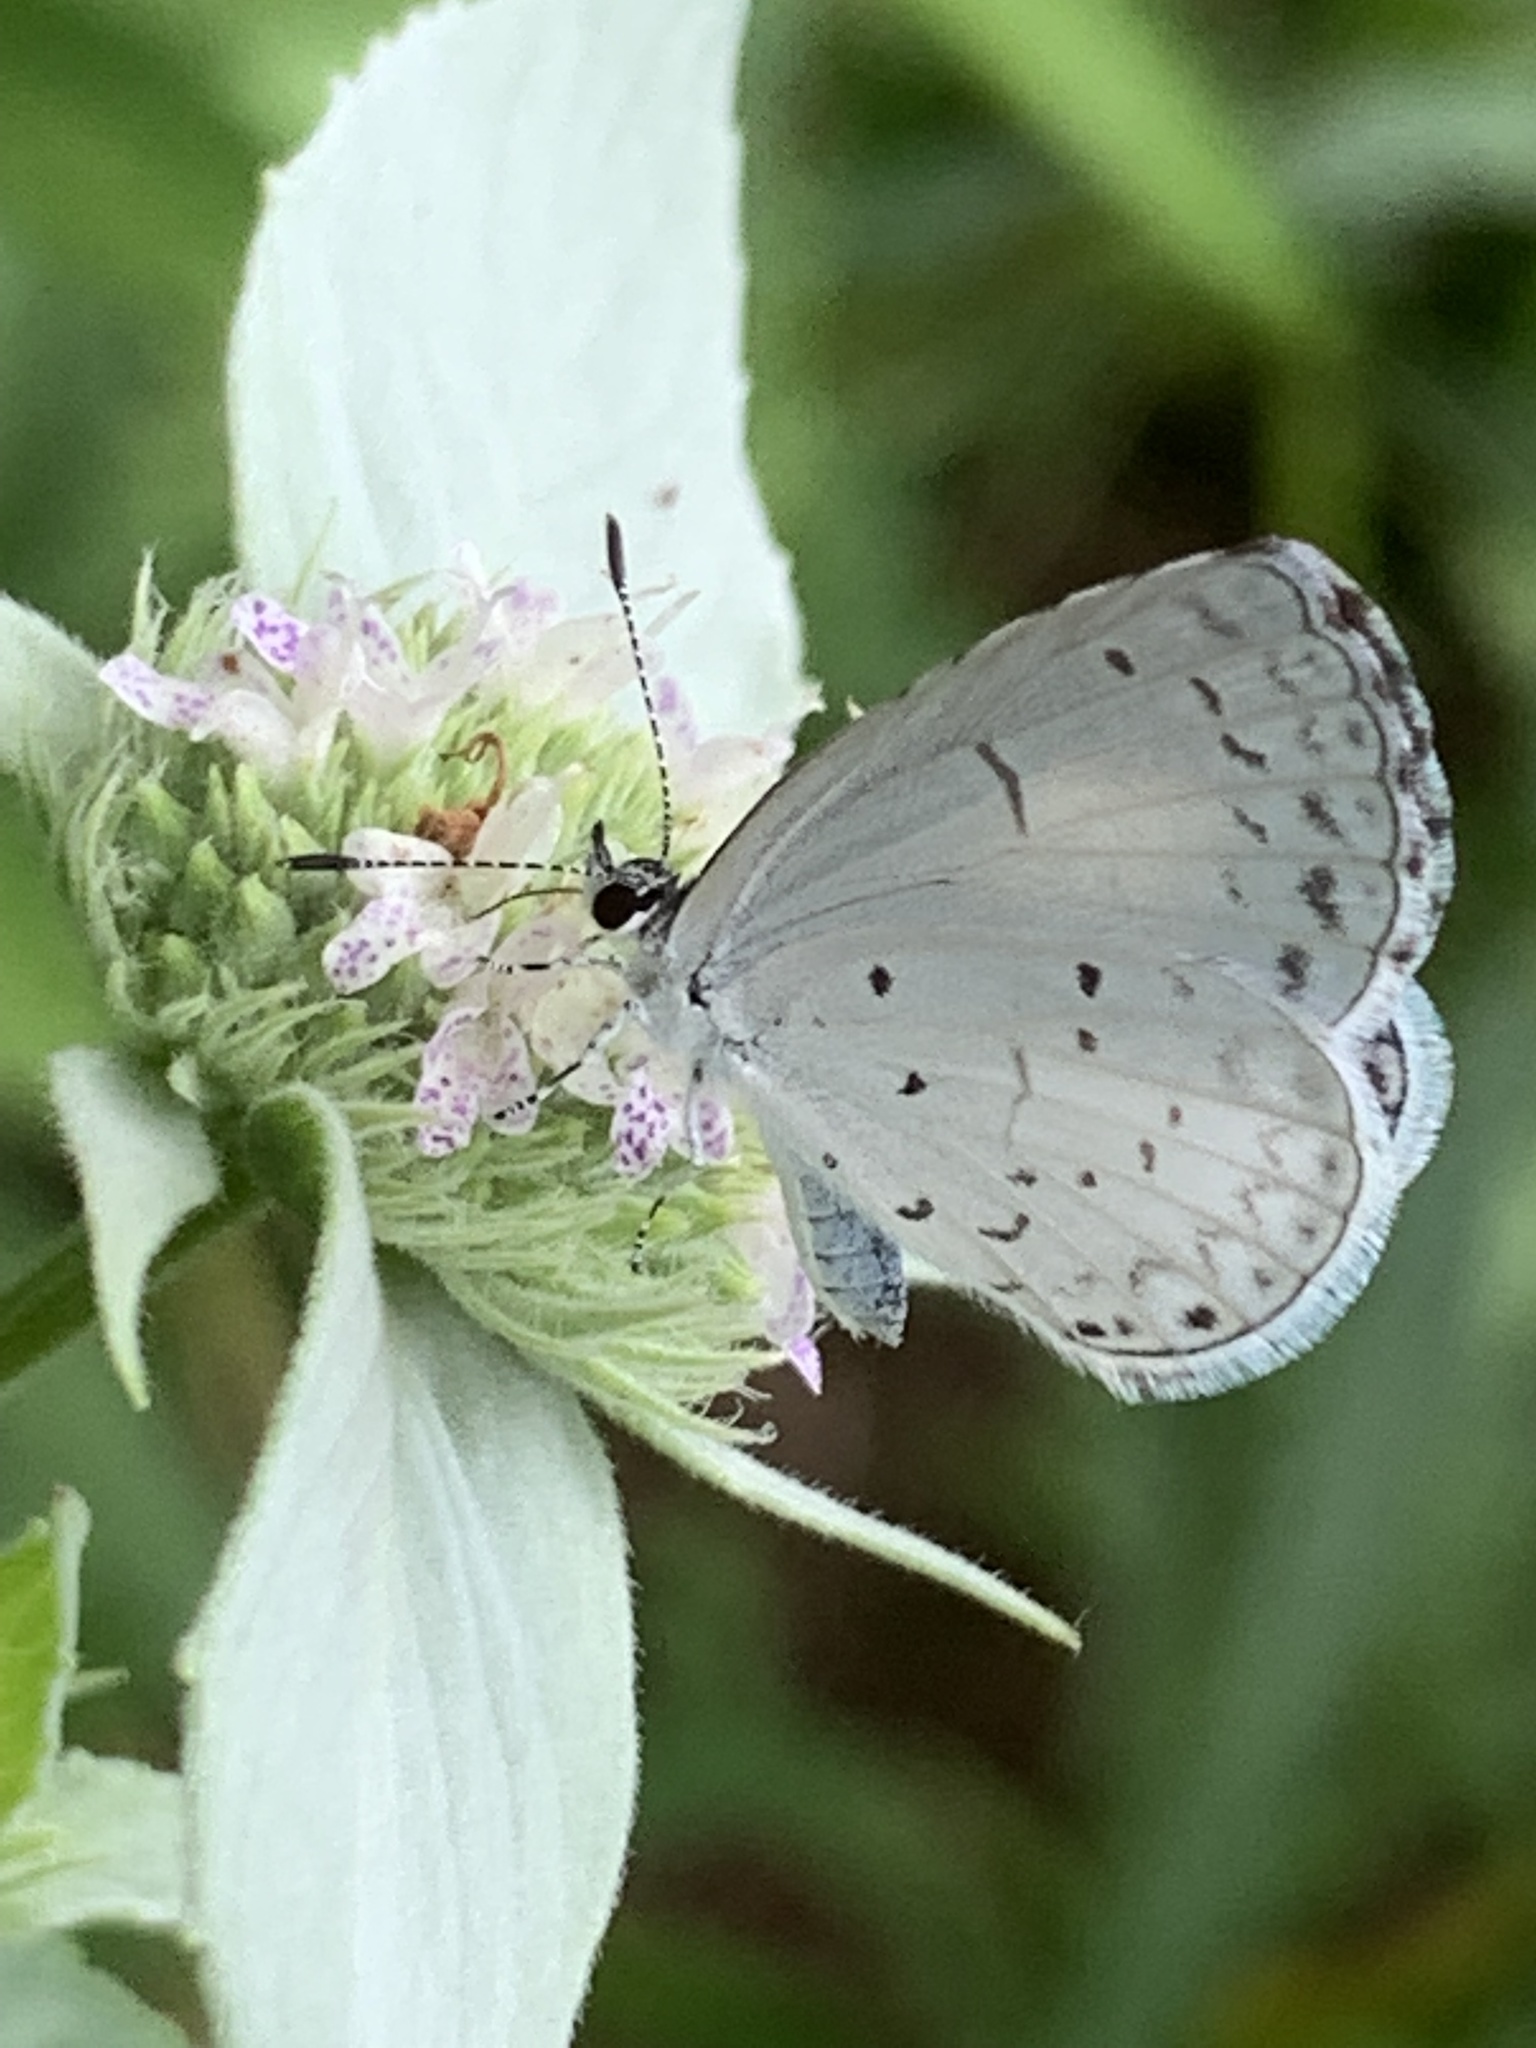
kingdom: Animalia
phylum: Arthropoda
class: Insecta
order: Lepidoptera
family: Lycaenidae
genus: Cyaniris
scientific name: Cyaniris neglecta
